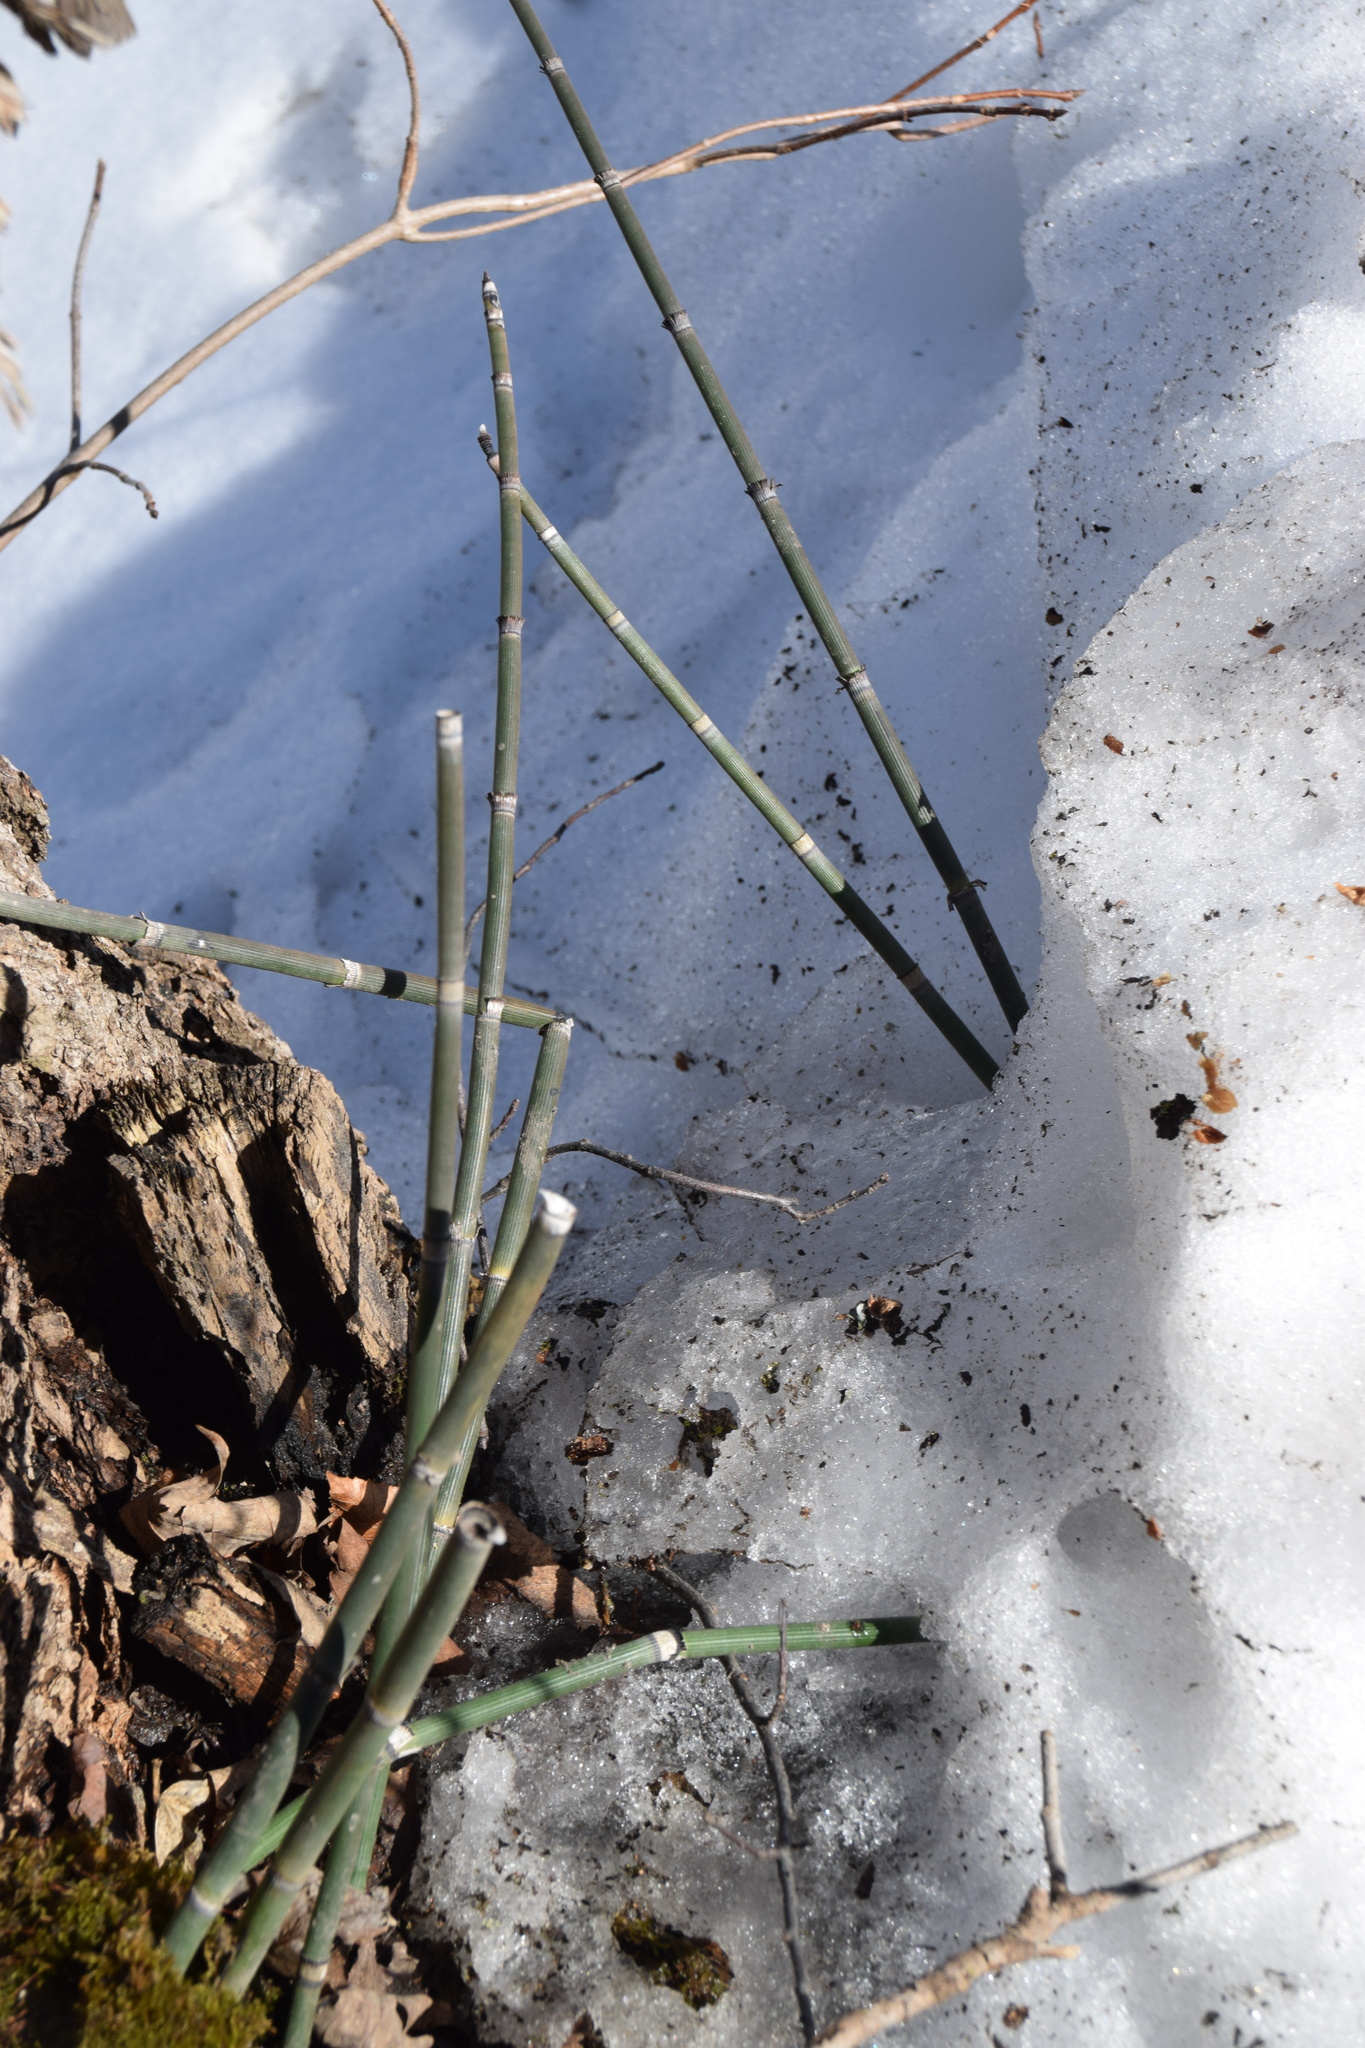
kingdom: Plantae
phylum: Tracheophyta
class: Polypodiopsida
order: Equisetales
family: Equisetaceae
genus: Equisetum
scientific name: Equisetum hyemale
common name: Rough horsetail
